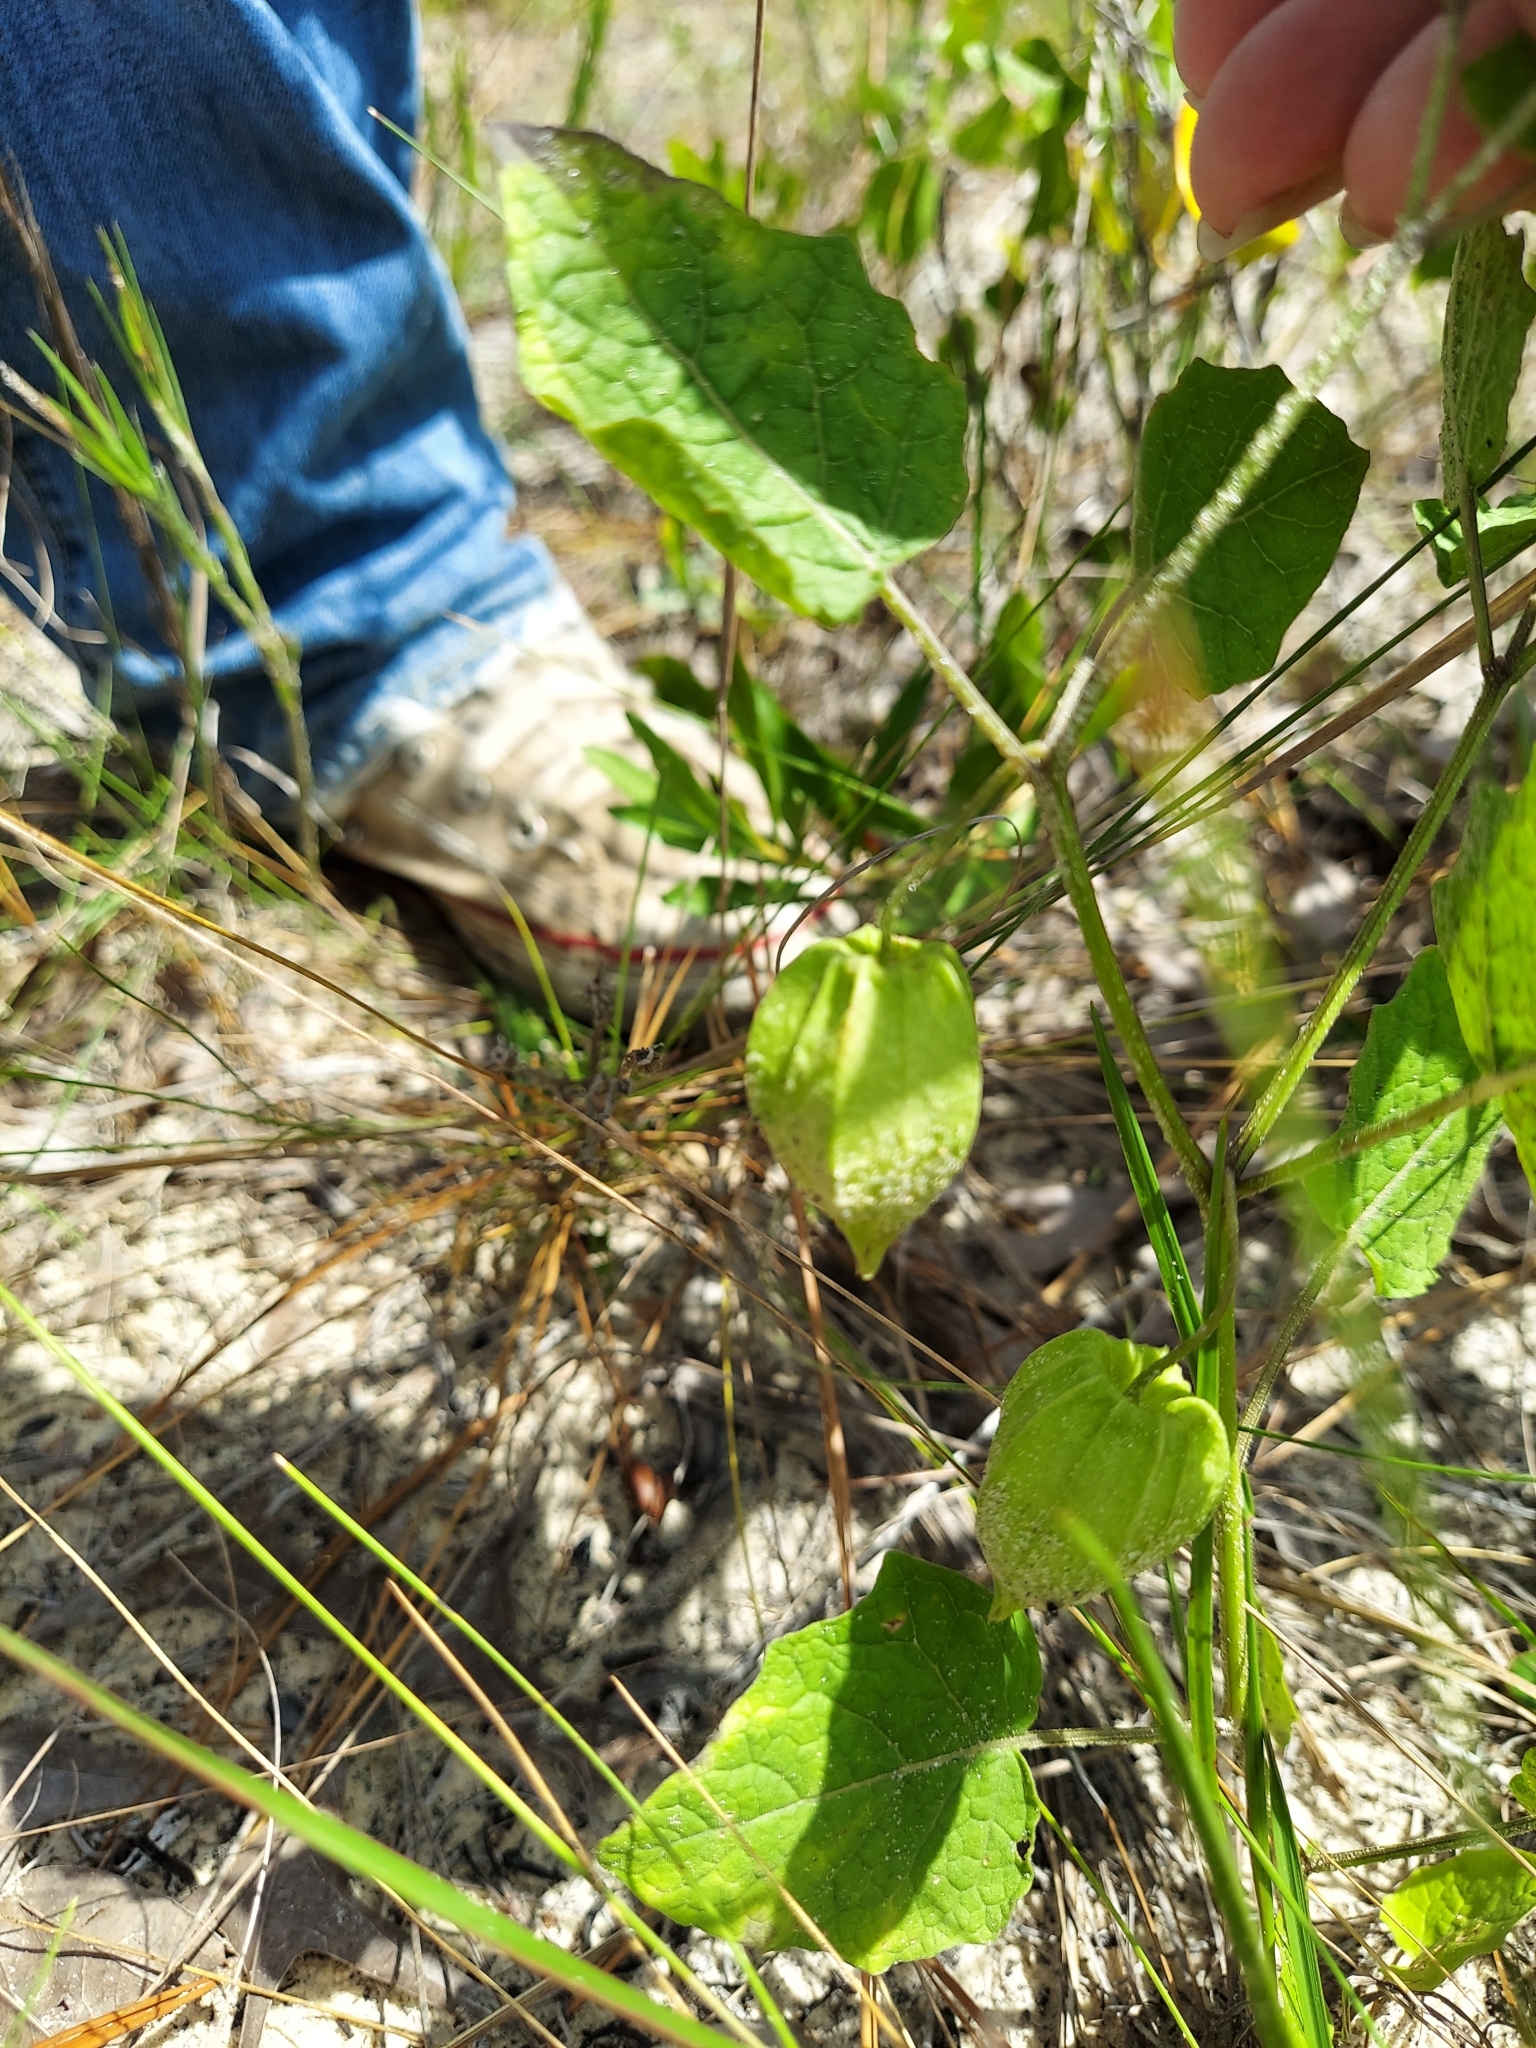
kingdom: Plantae
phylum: Tracheophyta
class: Magnoliopsida
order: Solanales
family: Solanaceae
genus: Physalis
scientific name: Physalis arenicola
